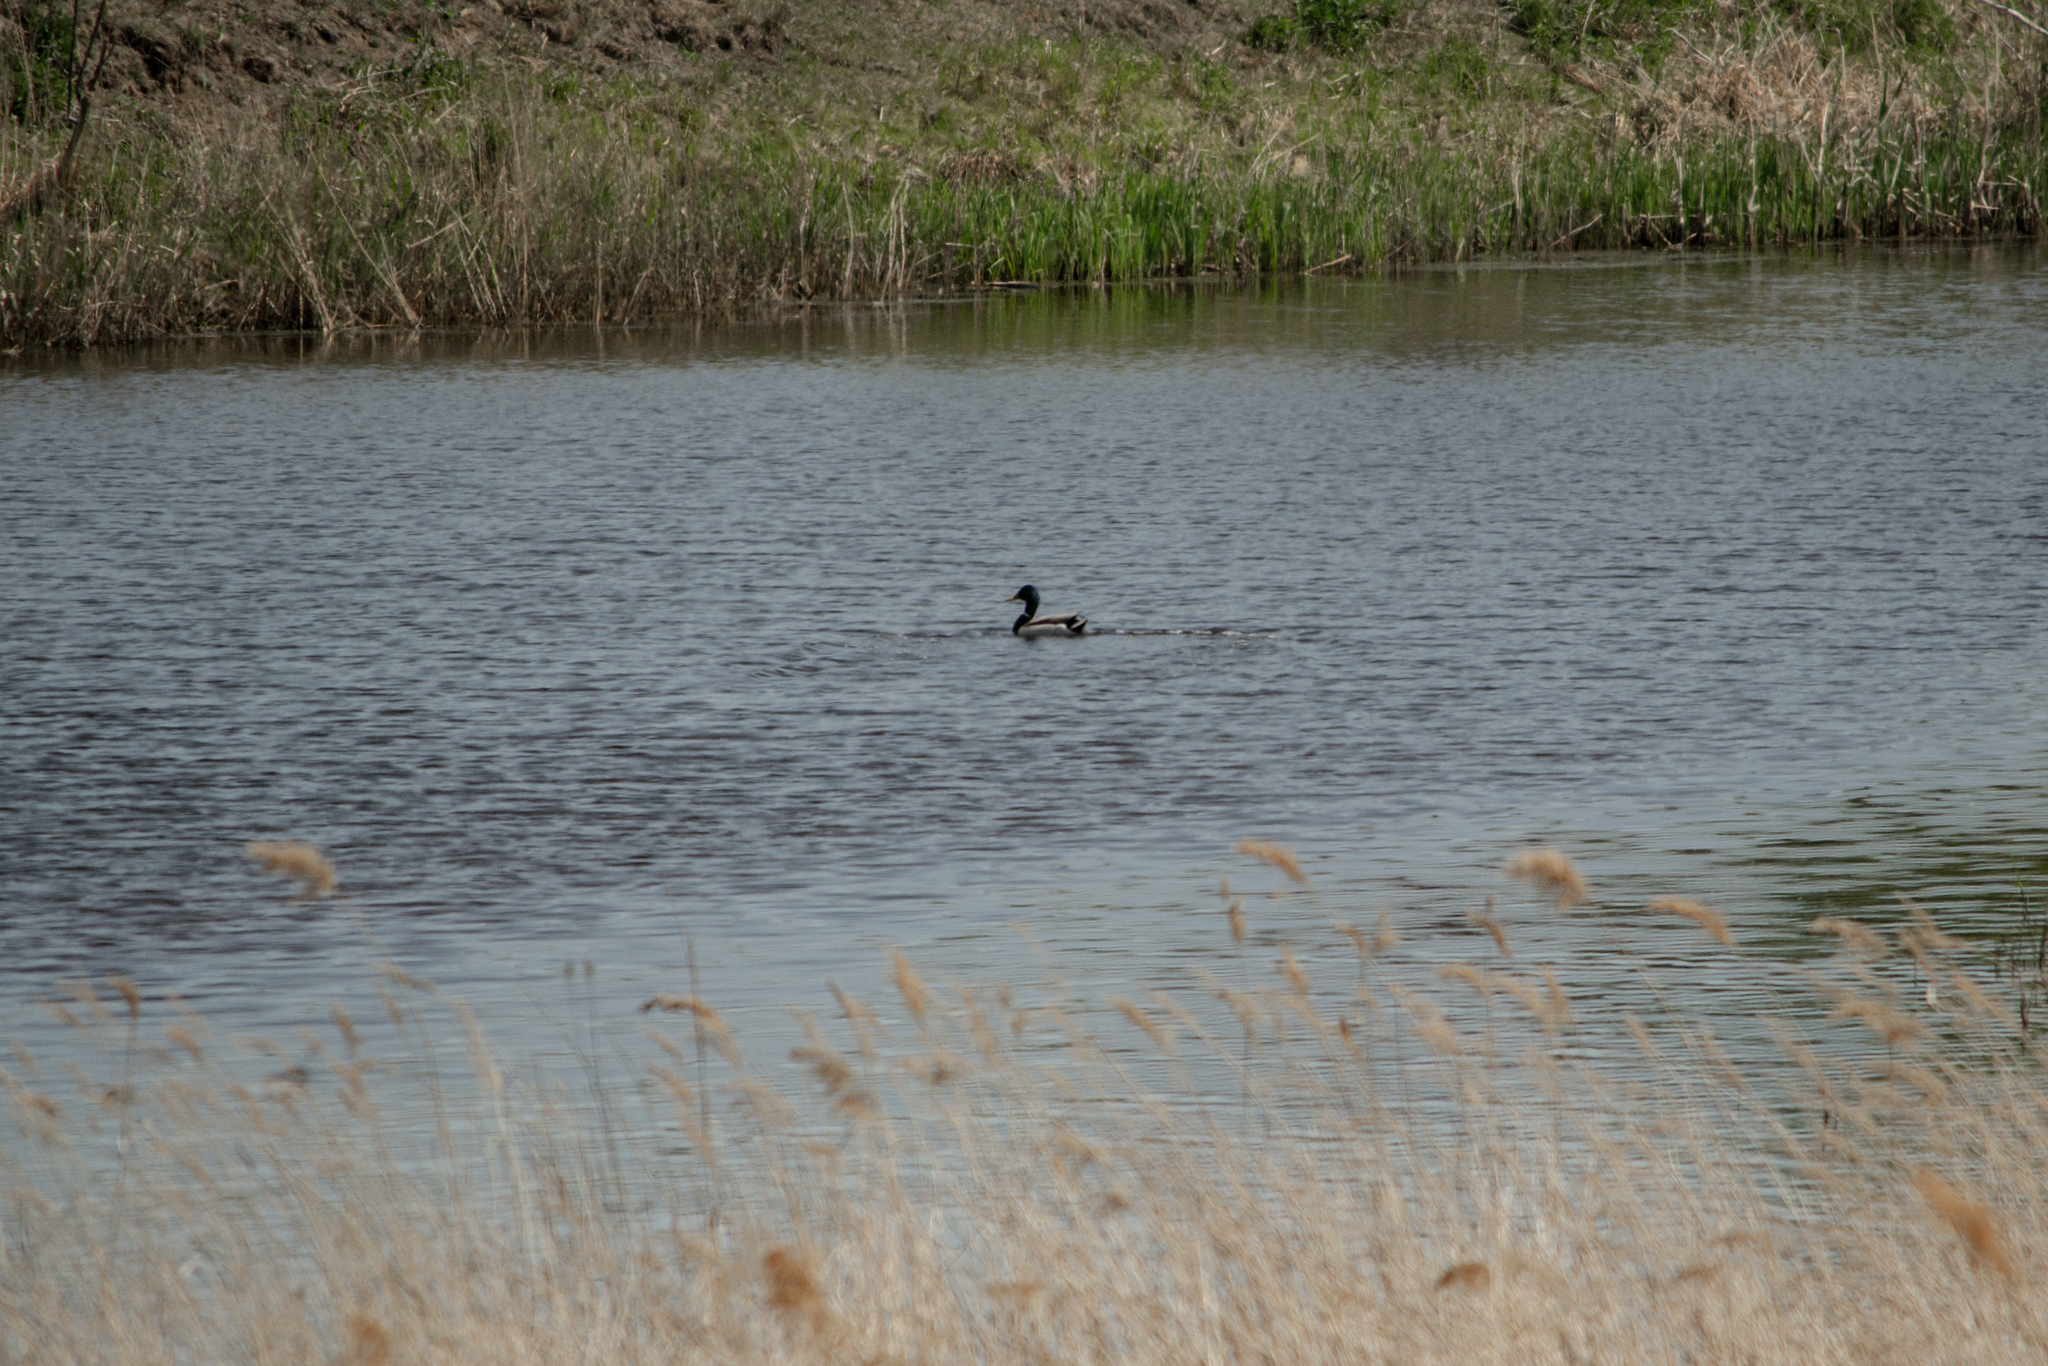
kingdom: Animalia
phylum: Chordata
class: Aves
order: Anseriformes
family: Anatidae
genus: Anas
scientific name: Anas platyrhynchos
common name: Mallard
